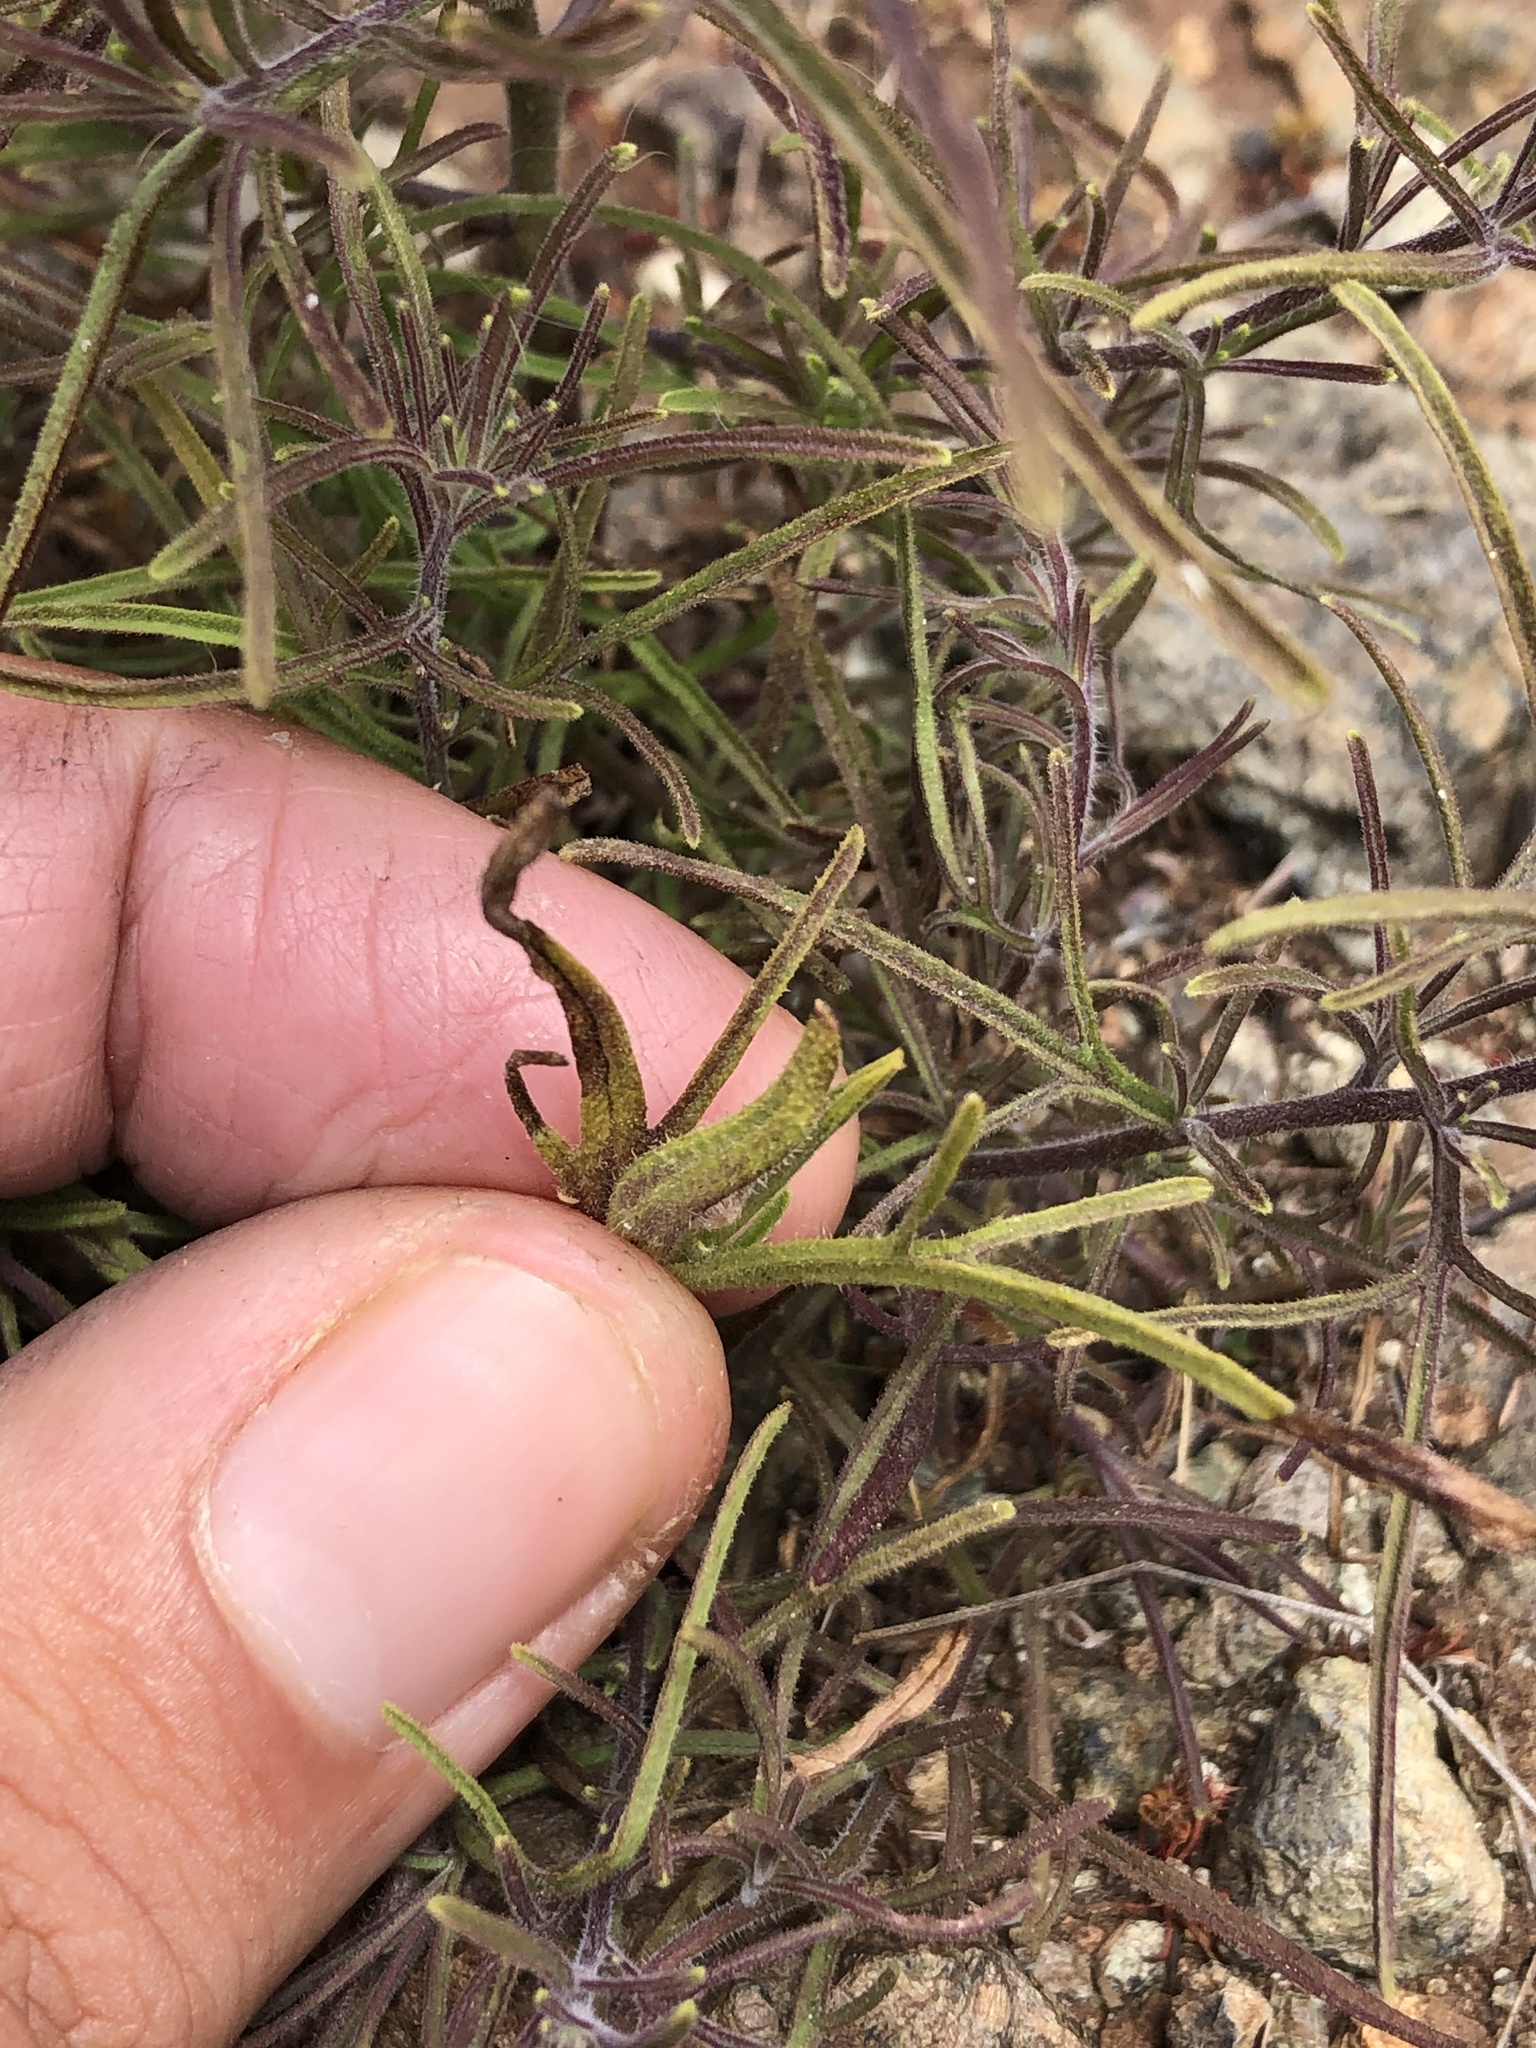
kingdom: Plantae
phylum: Tracheophyta
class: Magnoliopsida
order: Lamiales
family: Orobanchaceae
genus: Cordylanthus
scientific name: Cordylanthus rigidus
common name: Stiff-branch bird's-beak
